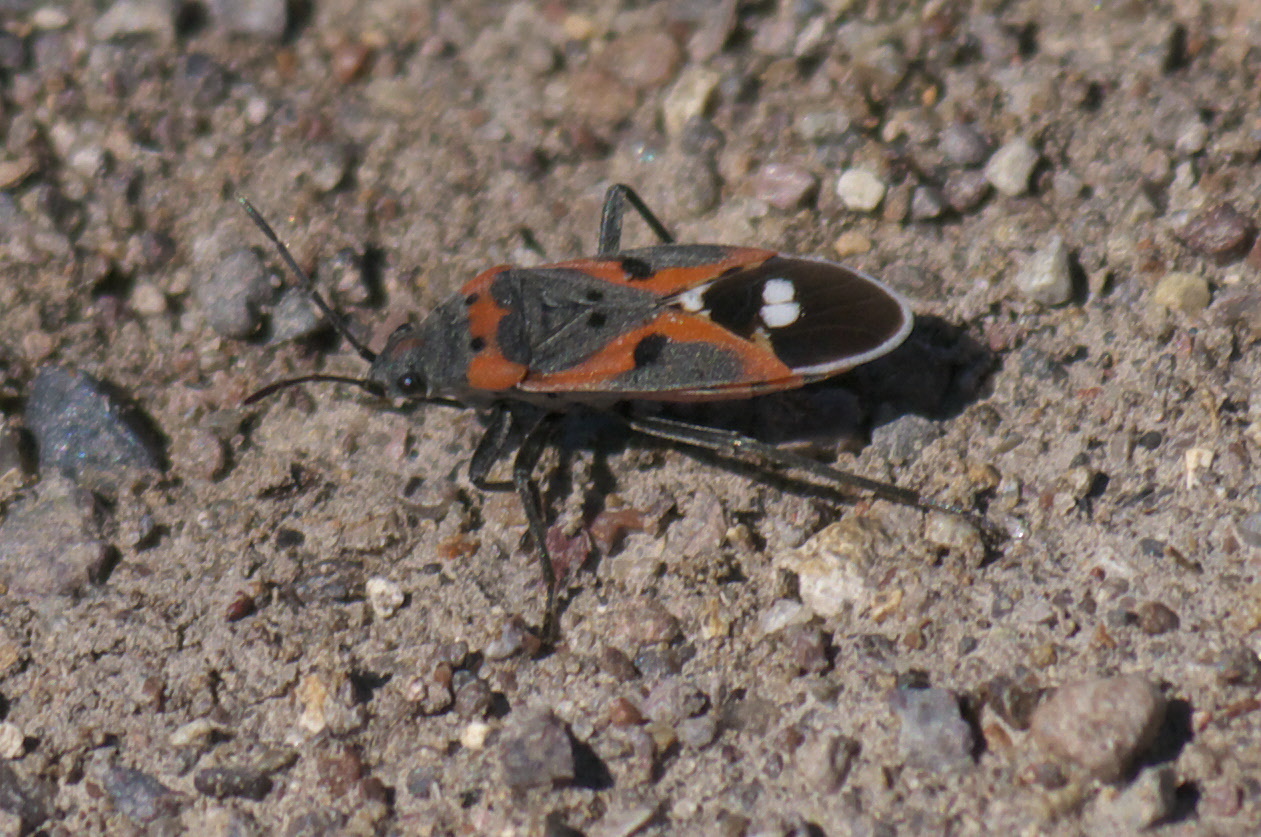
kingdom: Animalia
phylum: Arthropoda
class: Insecta
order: Hemiptera
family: Lygaeidae
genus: Lygaeus
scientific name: Lygaeus kalmii
